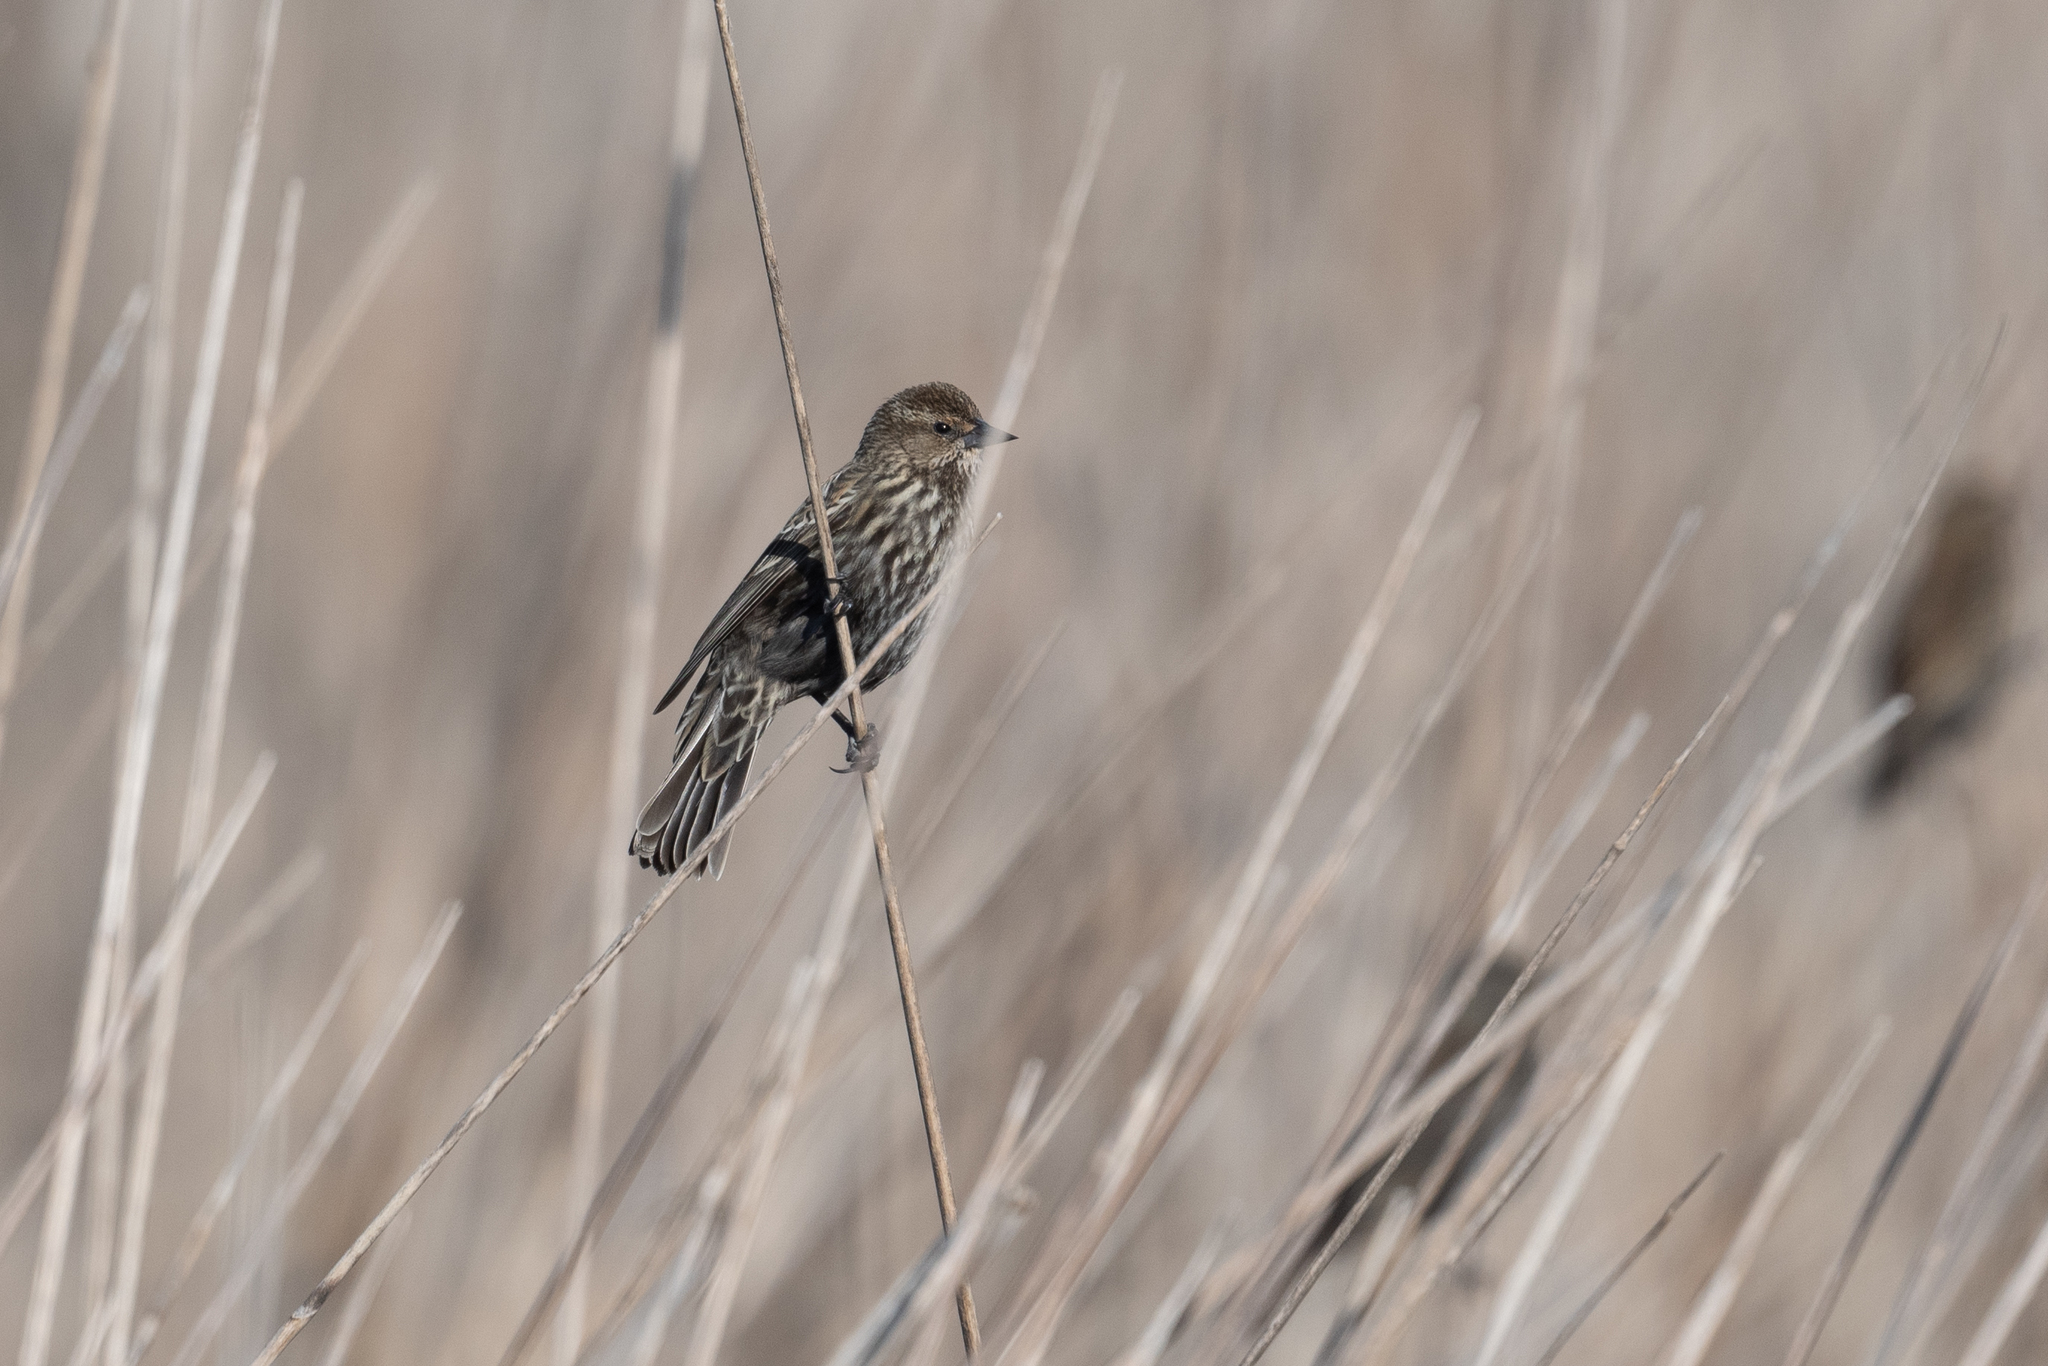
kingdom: Animalia
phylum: Chordata
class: Aves
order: Passeriformes
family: Icteridae
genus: Agelaius
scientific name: Agelaius phoeniceus
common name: Red-winged blackbird
